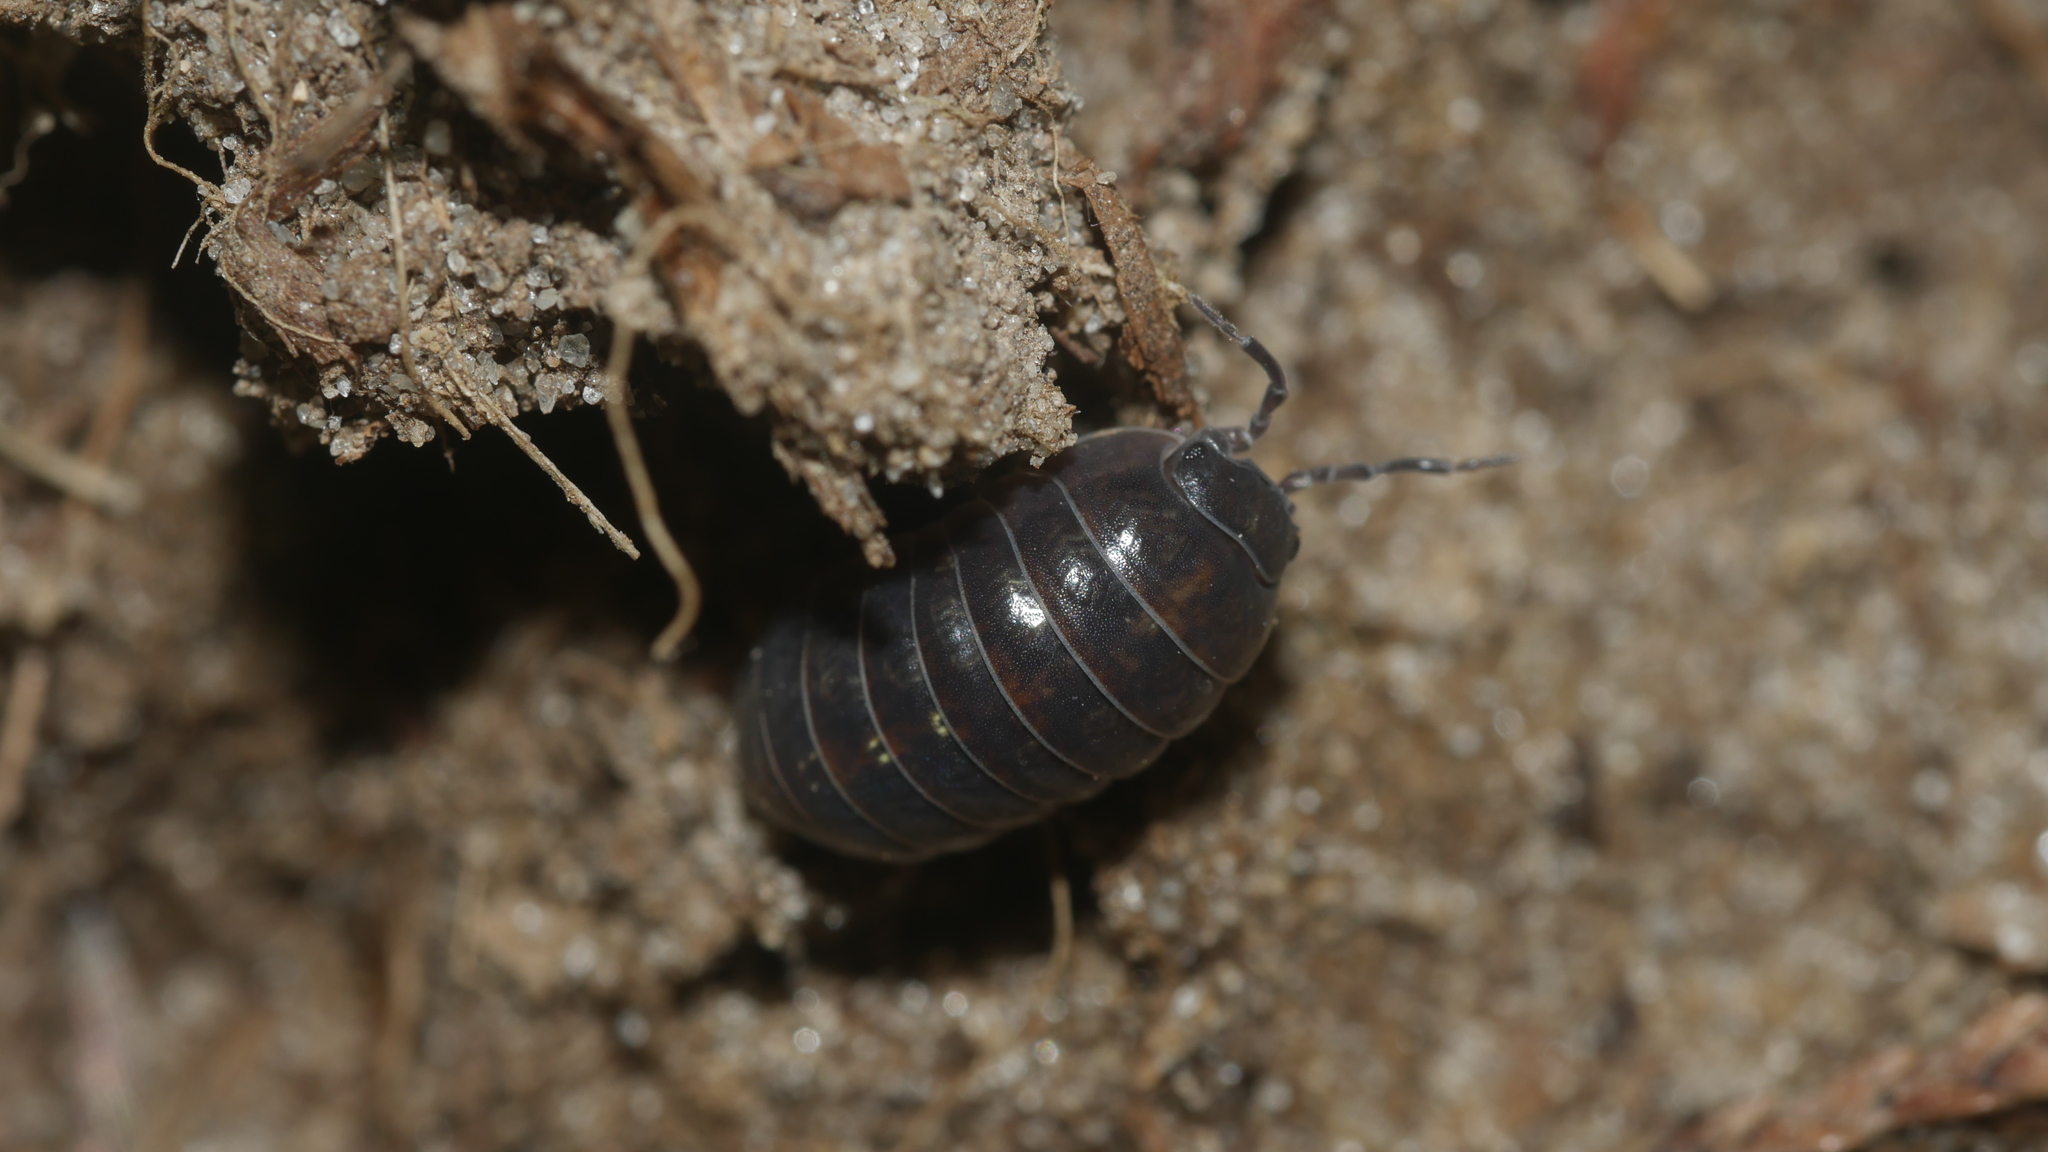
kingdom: Animalia
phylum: Arthropoda
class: Malacostraca
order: Isopoda
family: Armadillidiidae
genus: Armadillidium
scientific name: Armadillidium vulgare
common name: Common pill woodlouse
